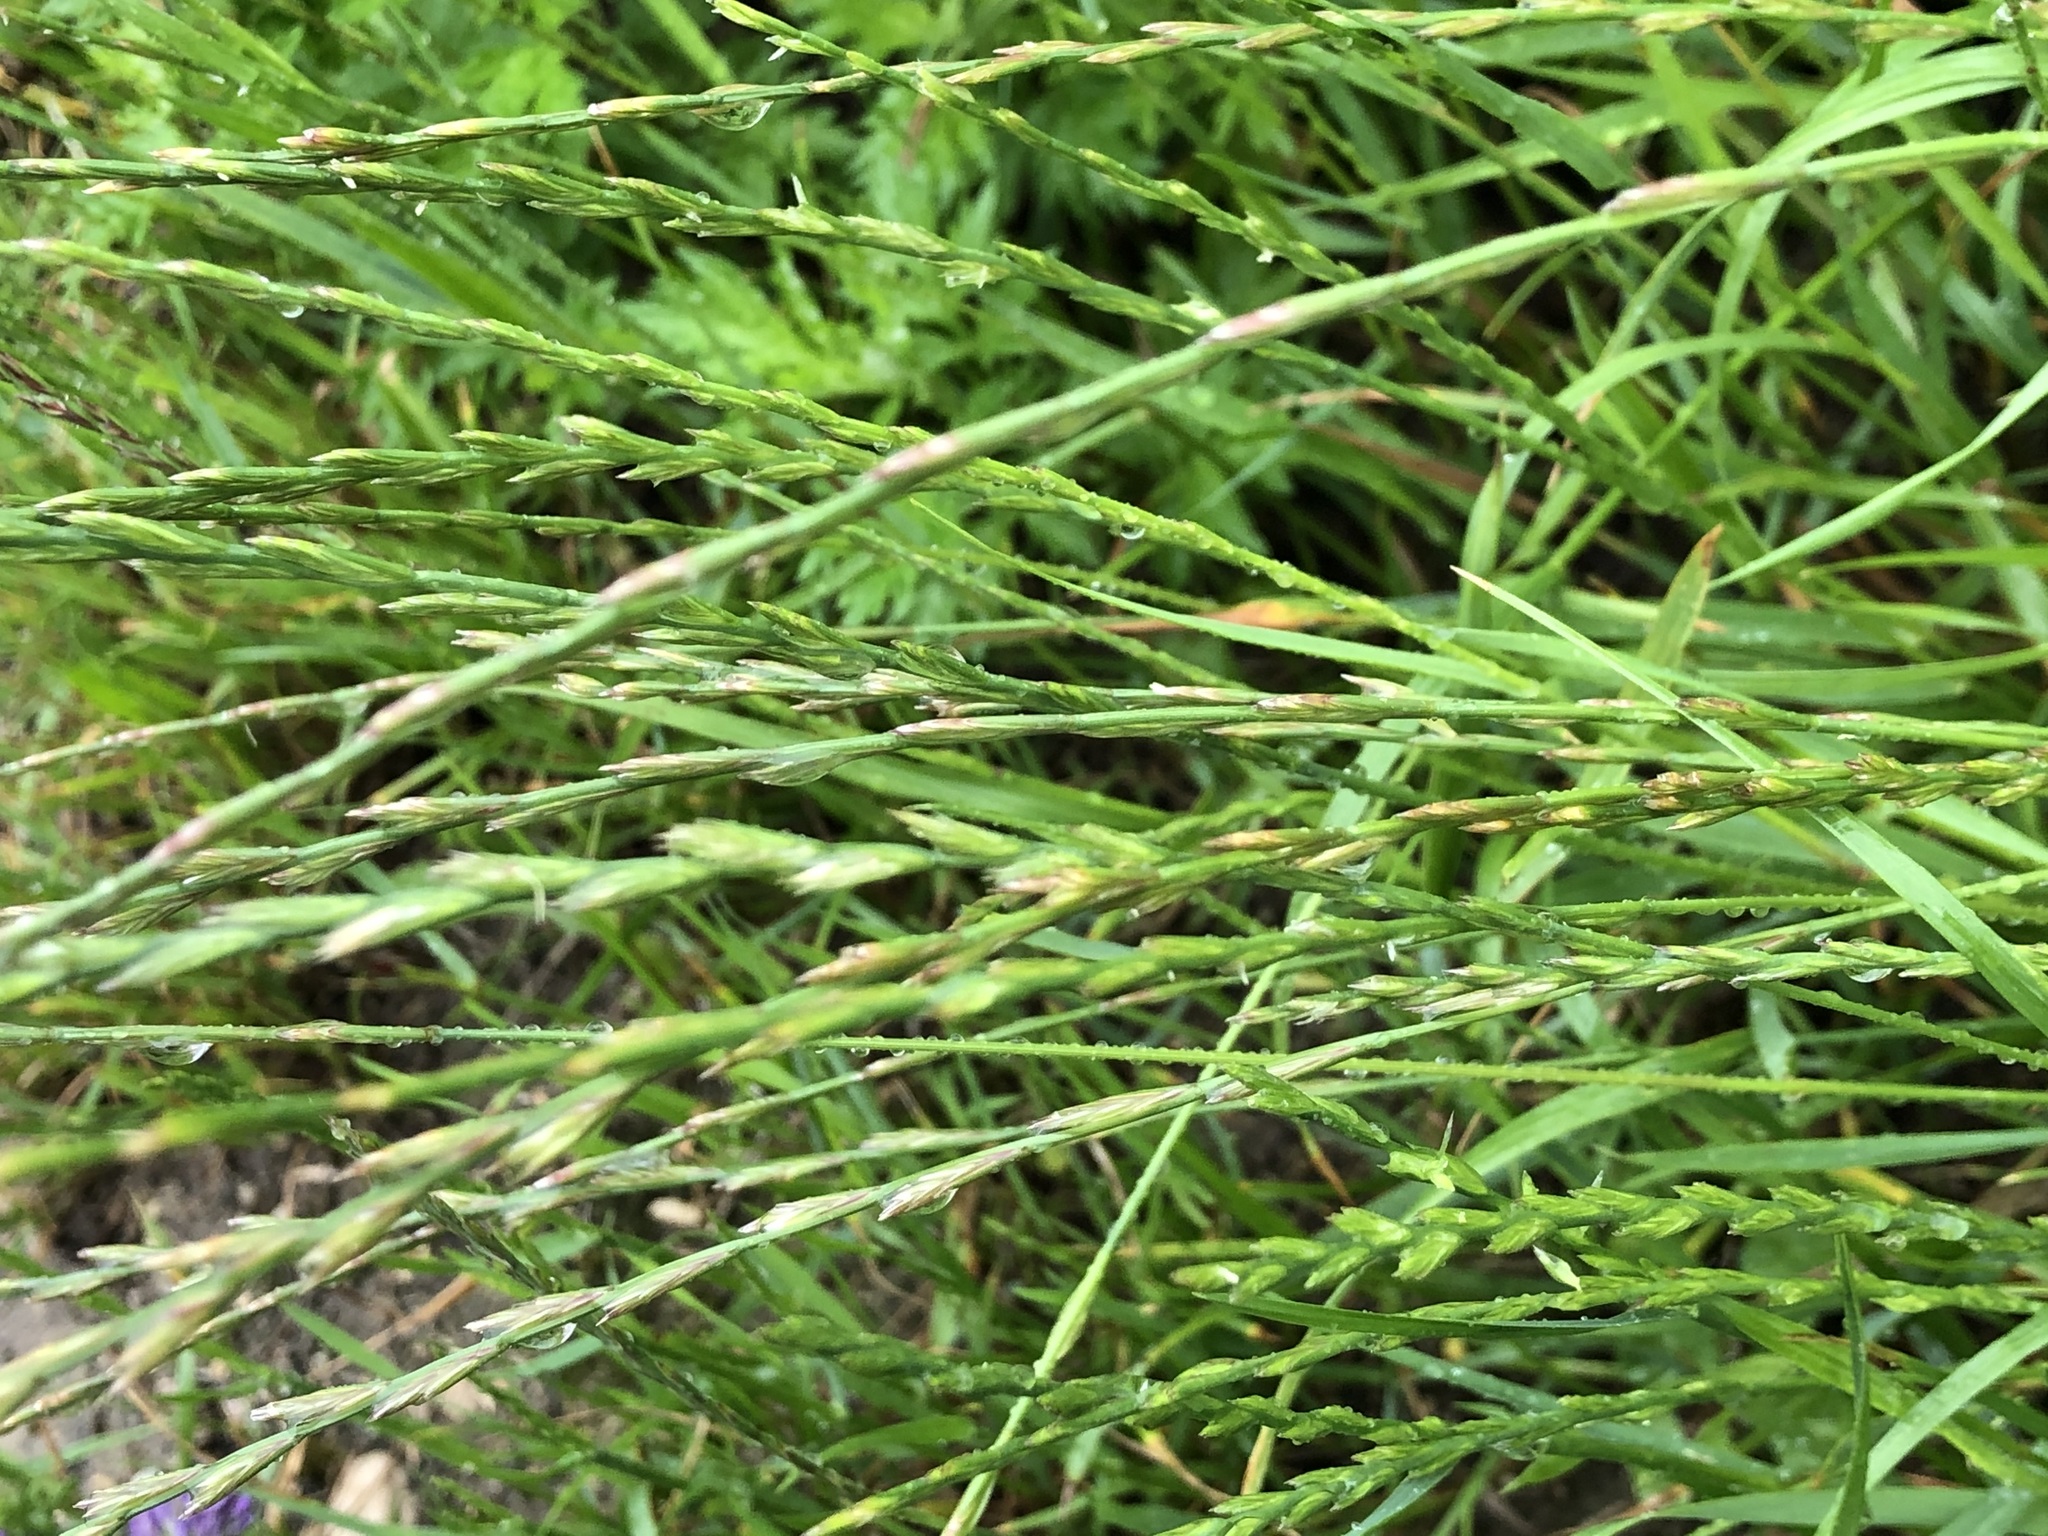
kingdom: Plantae
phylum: Tracheophyta
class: Liliopsida
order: Poales
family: Poaceae
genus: Lolium
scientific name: Lolium perenne
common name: Perennial ryegrass
